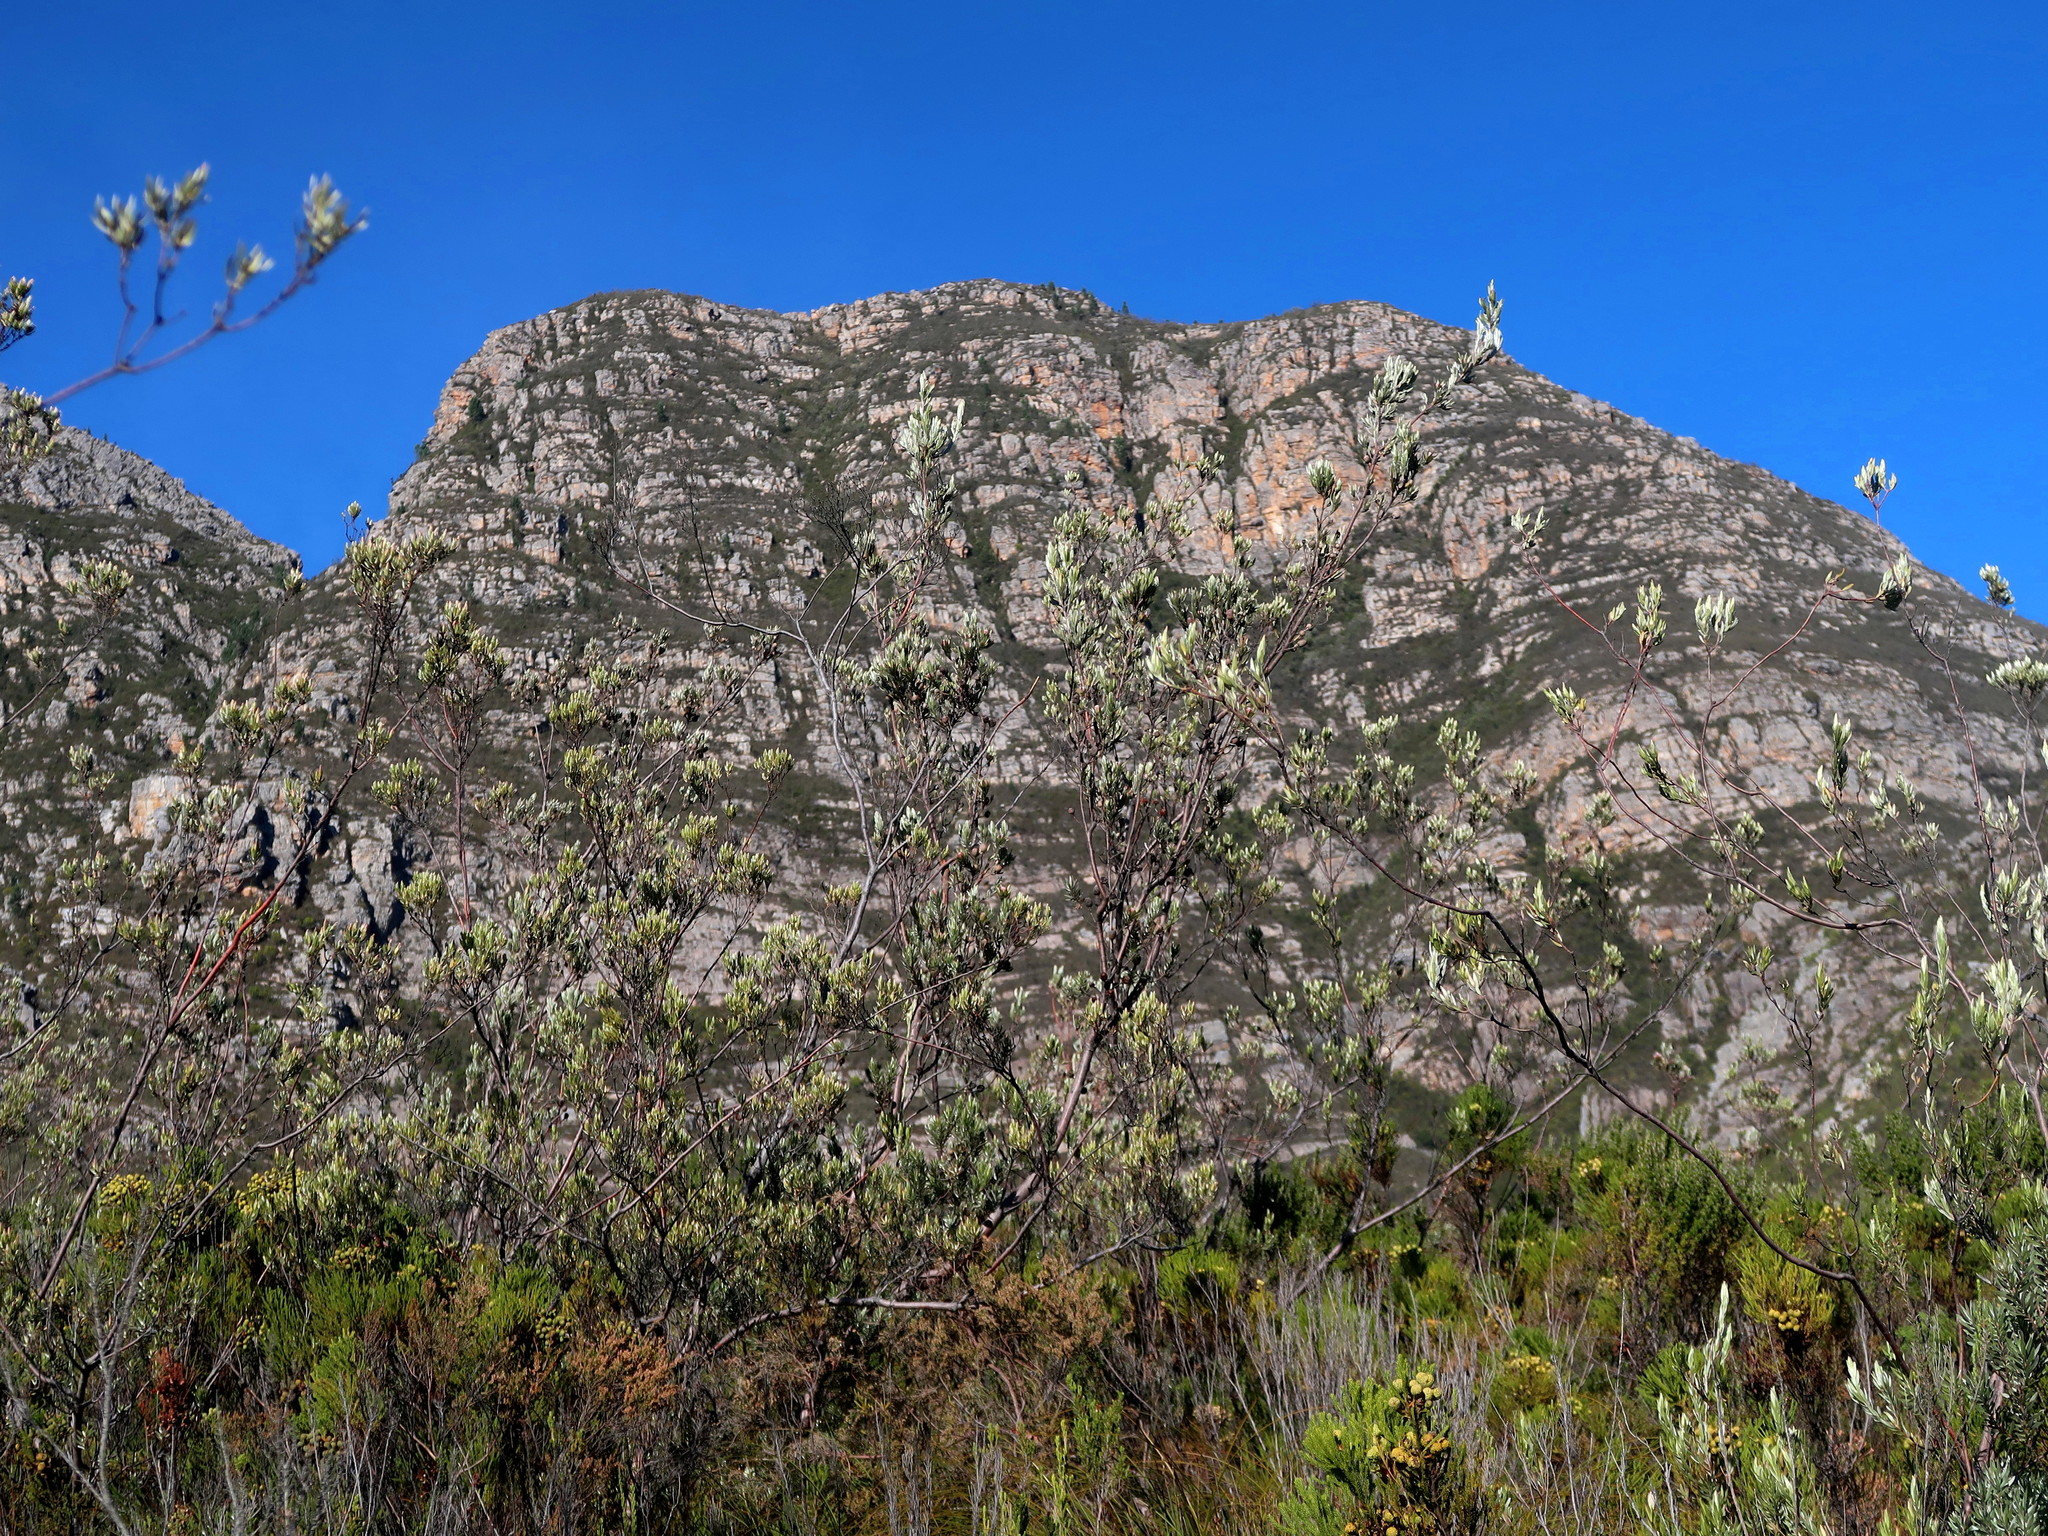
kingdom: Plantae
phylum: Tracheophyta
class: Magnoliopsida
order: Proteales
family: Proteaceae
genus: Leucadendron
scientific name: Leucadendron uliginosum
